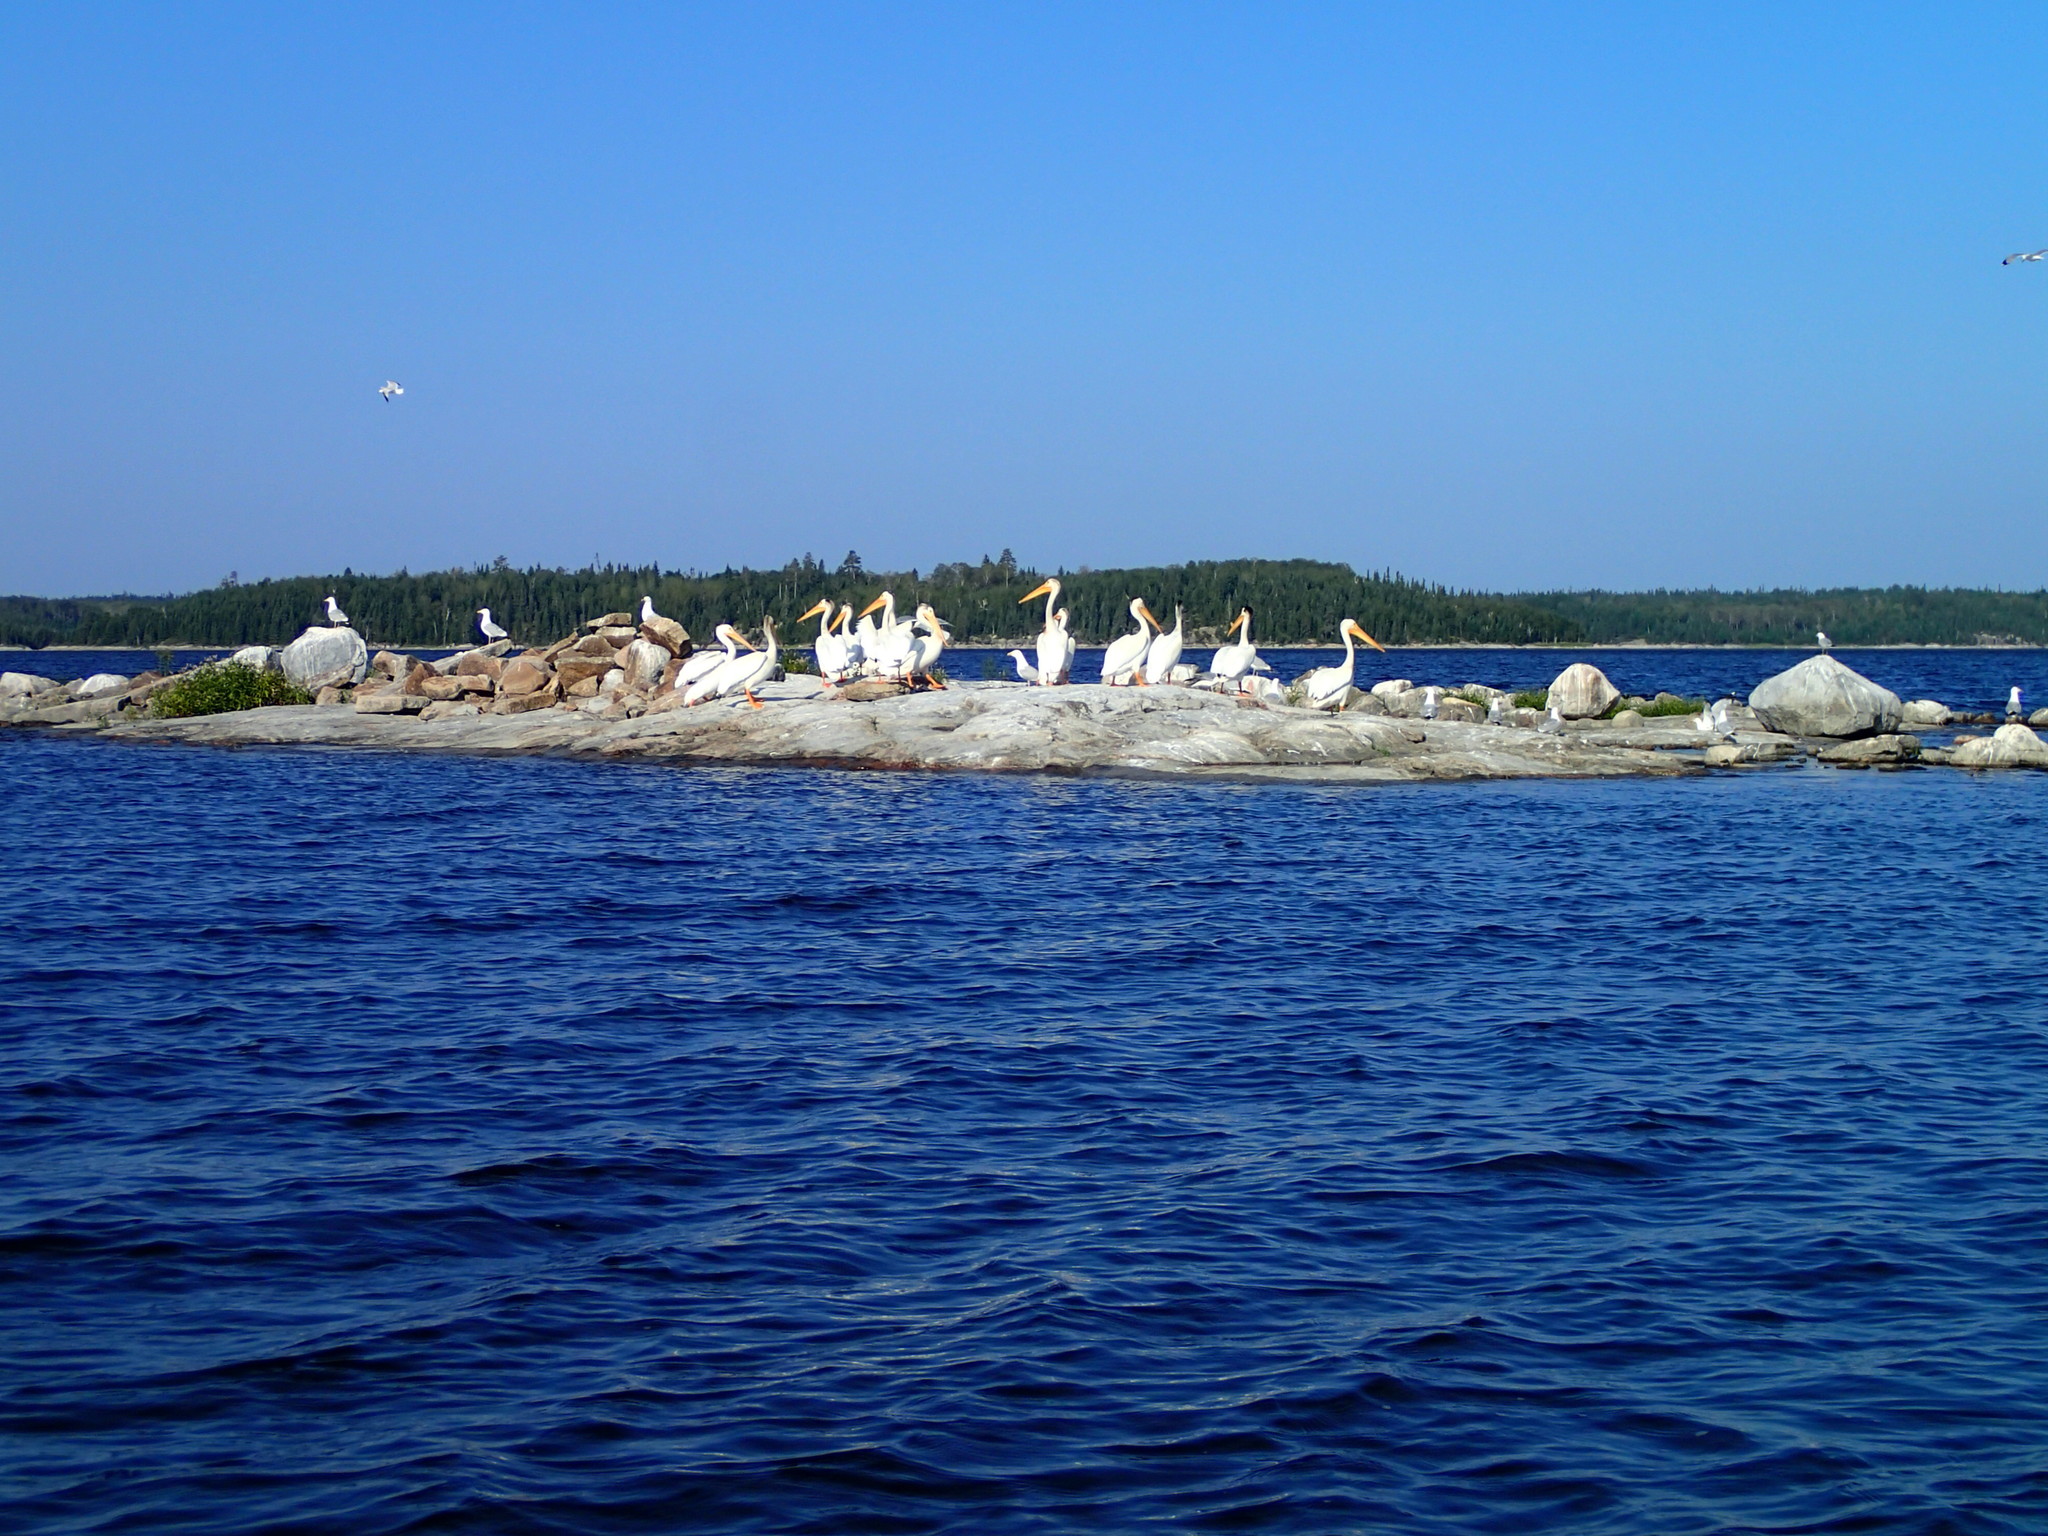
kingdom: Animalia
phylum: Chordata
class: Aves
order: Pelecaniformes
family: Pelecanidae
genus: Pelecanus
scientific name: Pelecanus erythrorhynchos
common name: American white pelican
